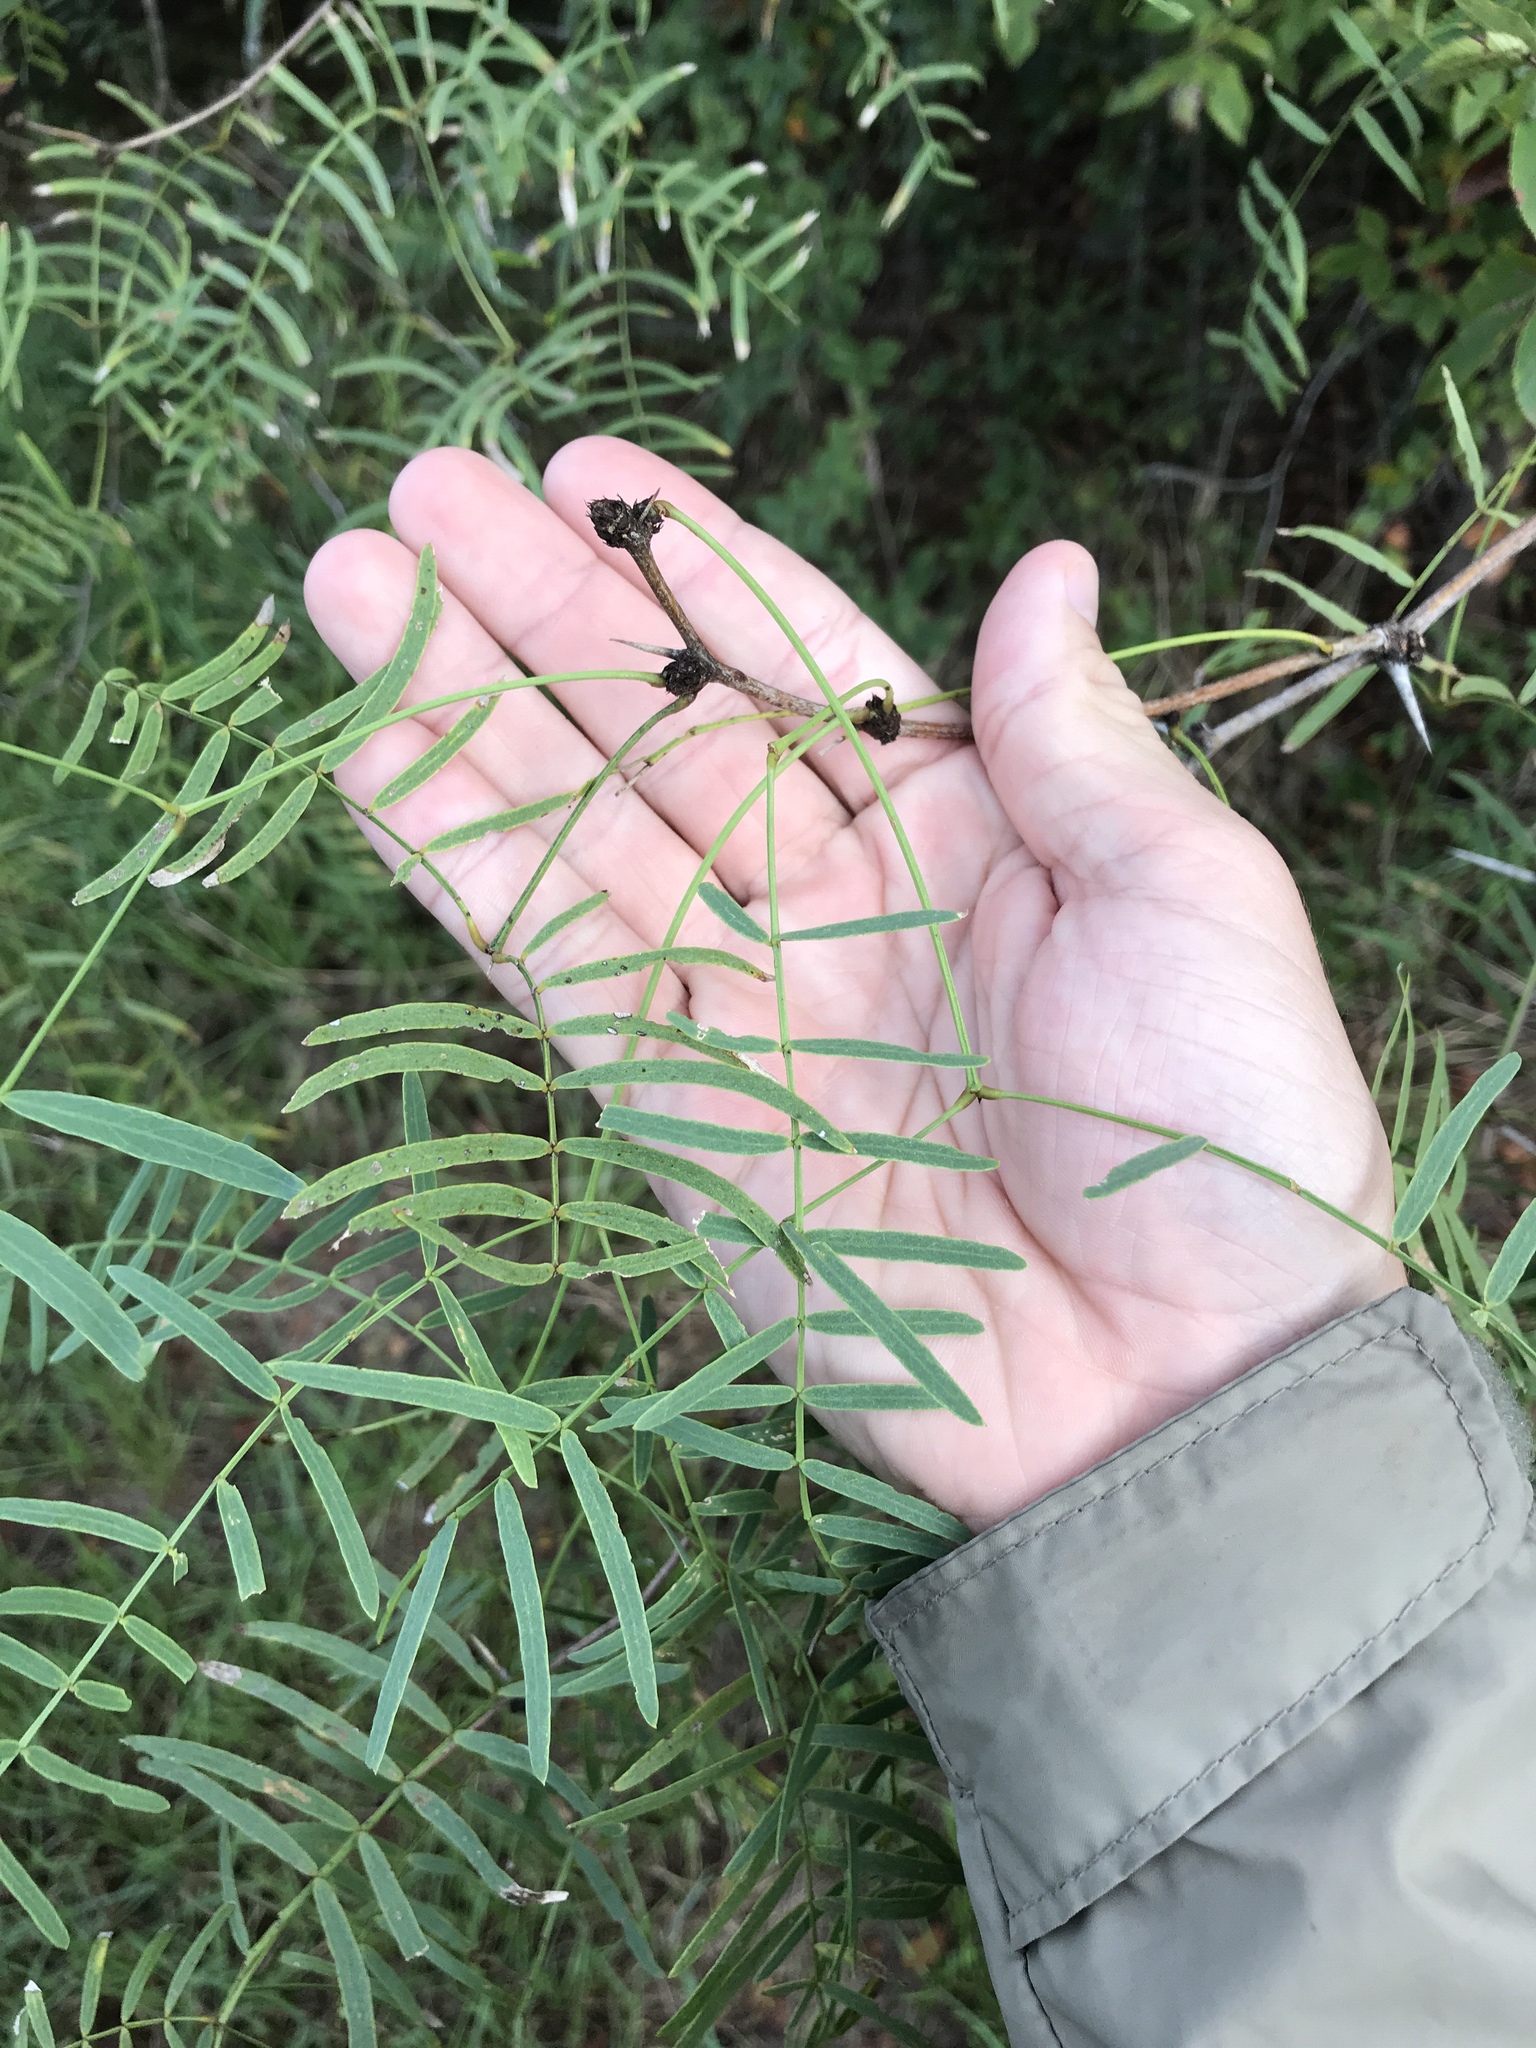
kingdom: Plantae
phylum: Tracheophyta
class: Magnoliopsida
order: Fabales
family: Fabaceae
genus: Prosopis
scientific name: Prosopis glandulosa
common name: Honey mesquite
